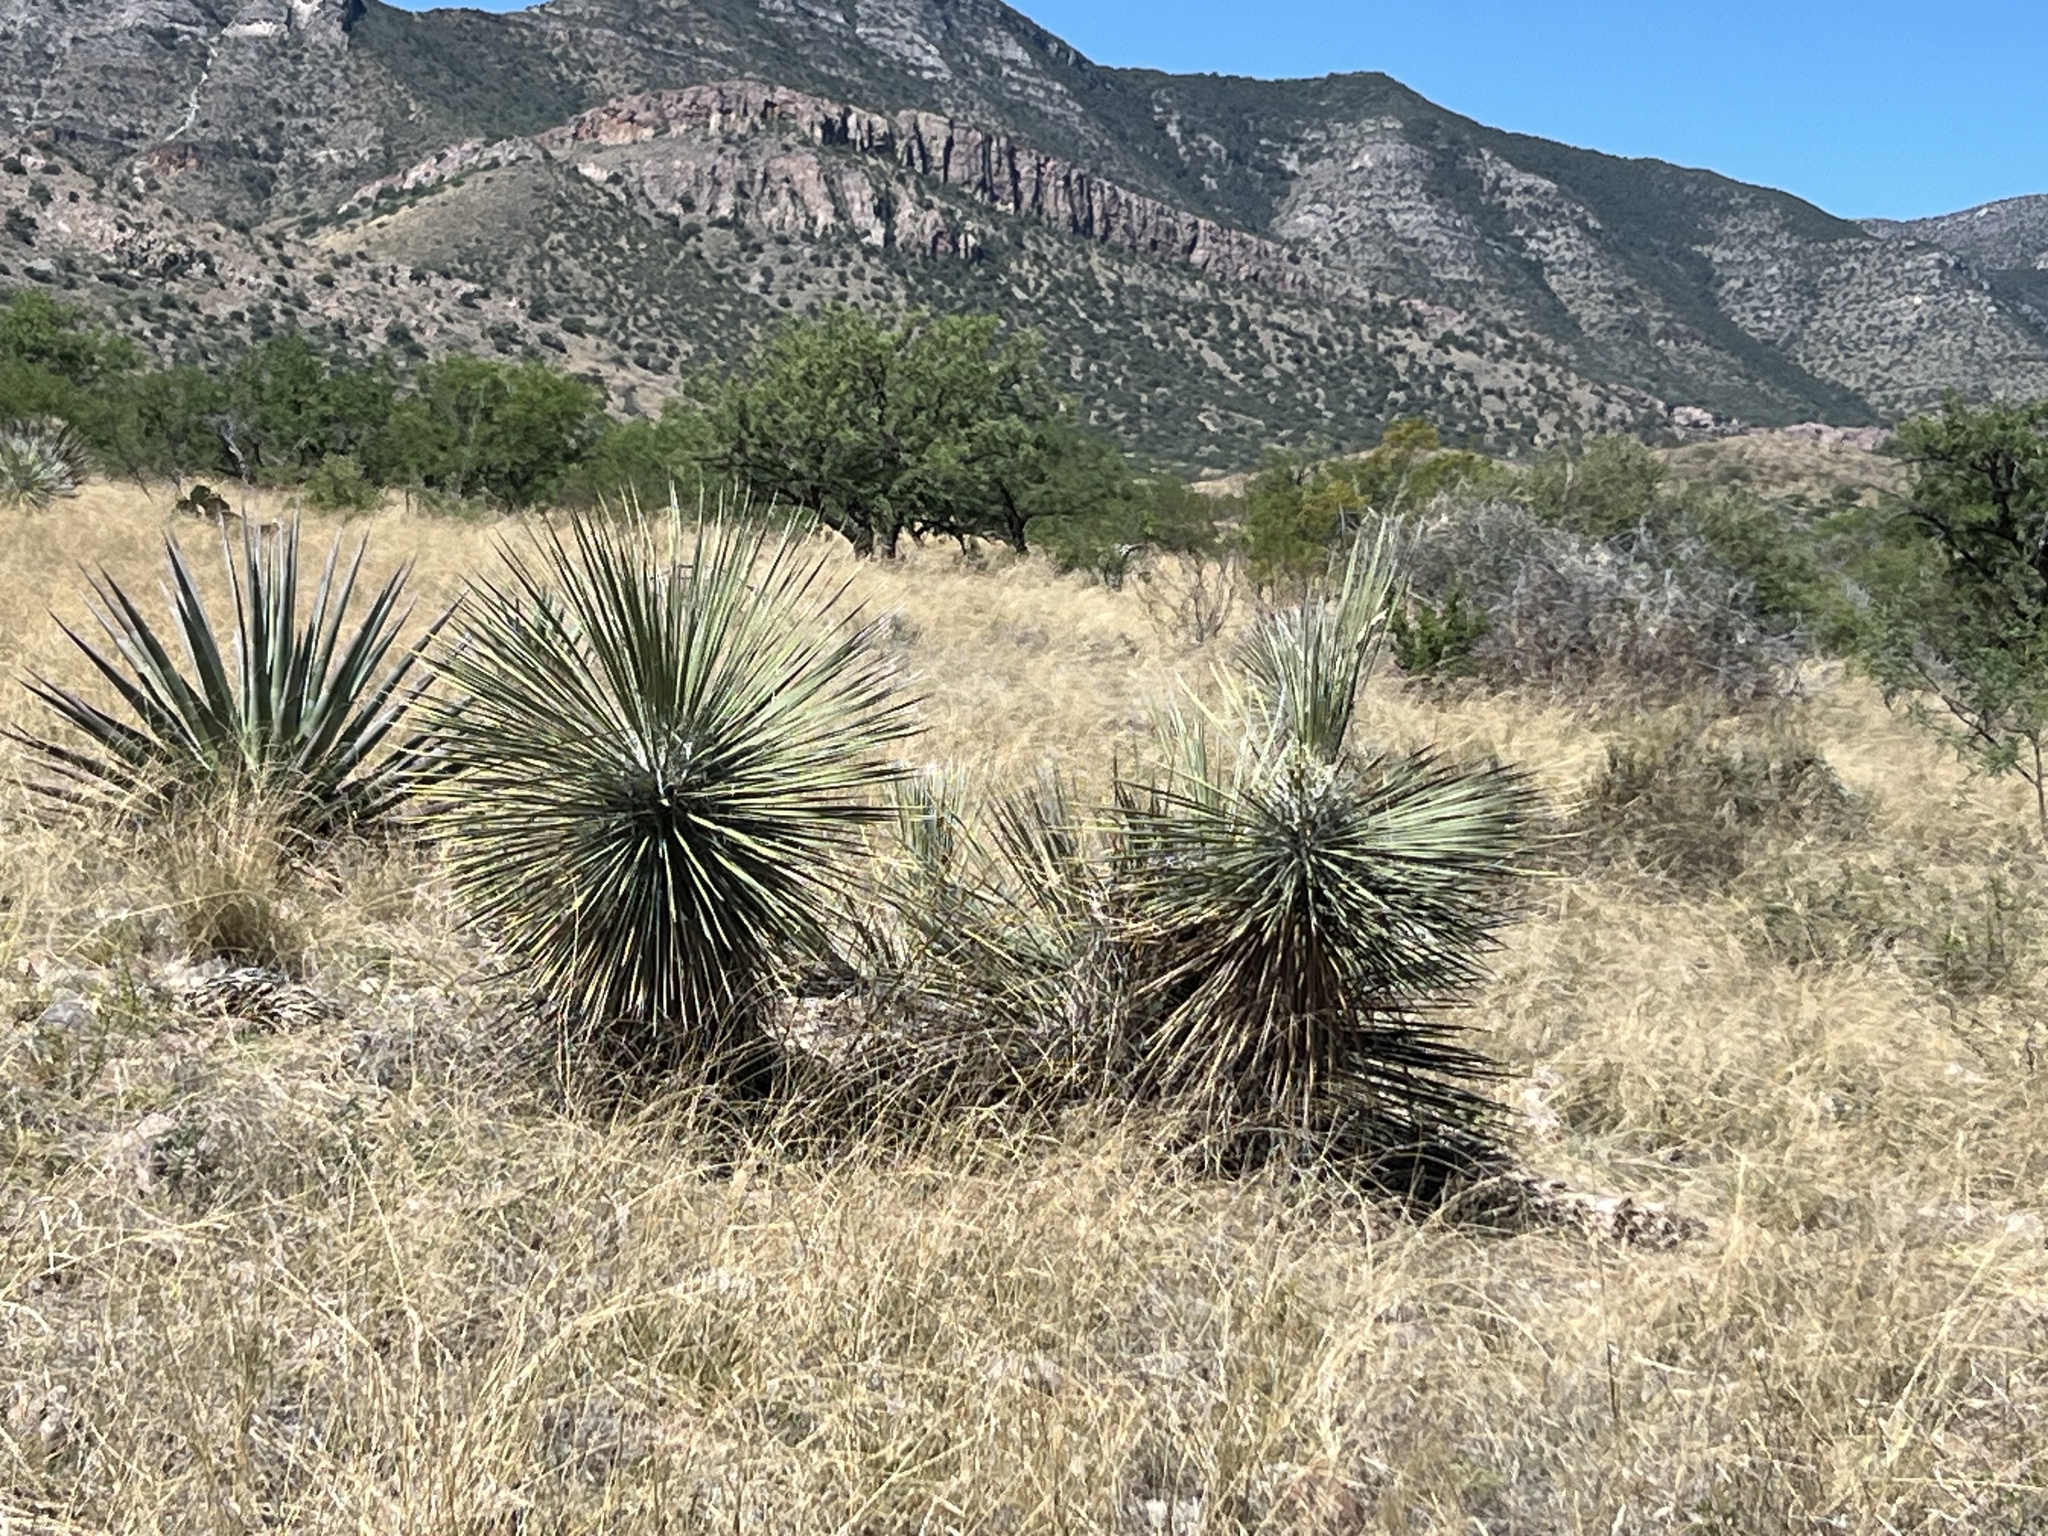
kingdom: Plantae
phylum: Tracheophyta
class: Liliopsida
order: Asparagales
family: Asparagaceae
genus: Yucca
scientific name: Yucca elata
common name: Palmella
